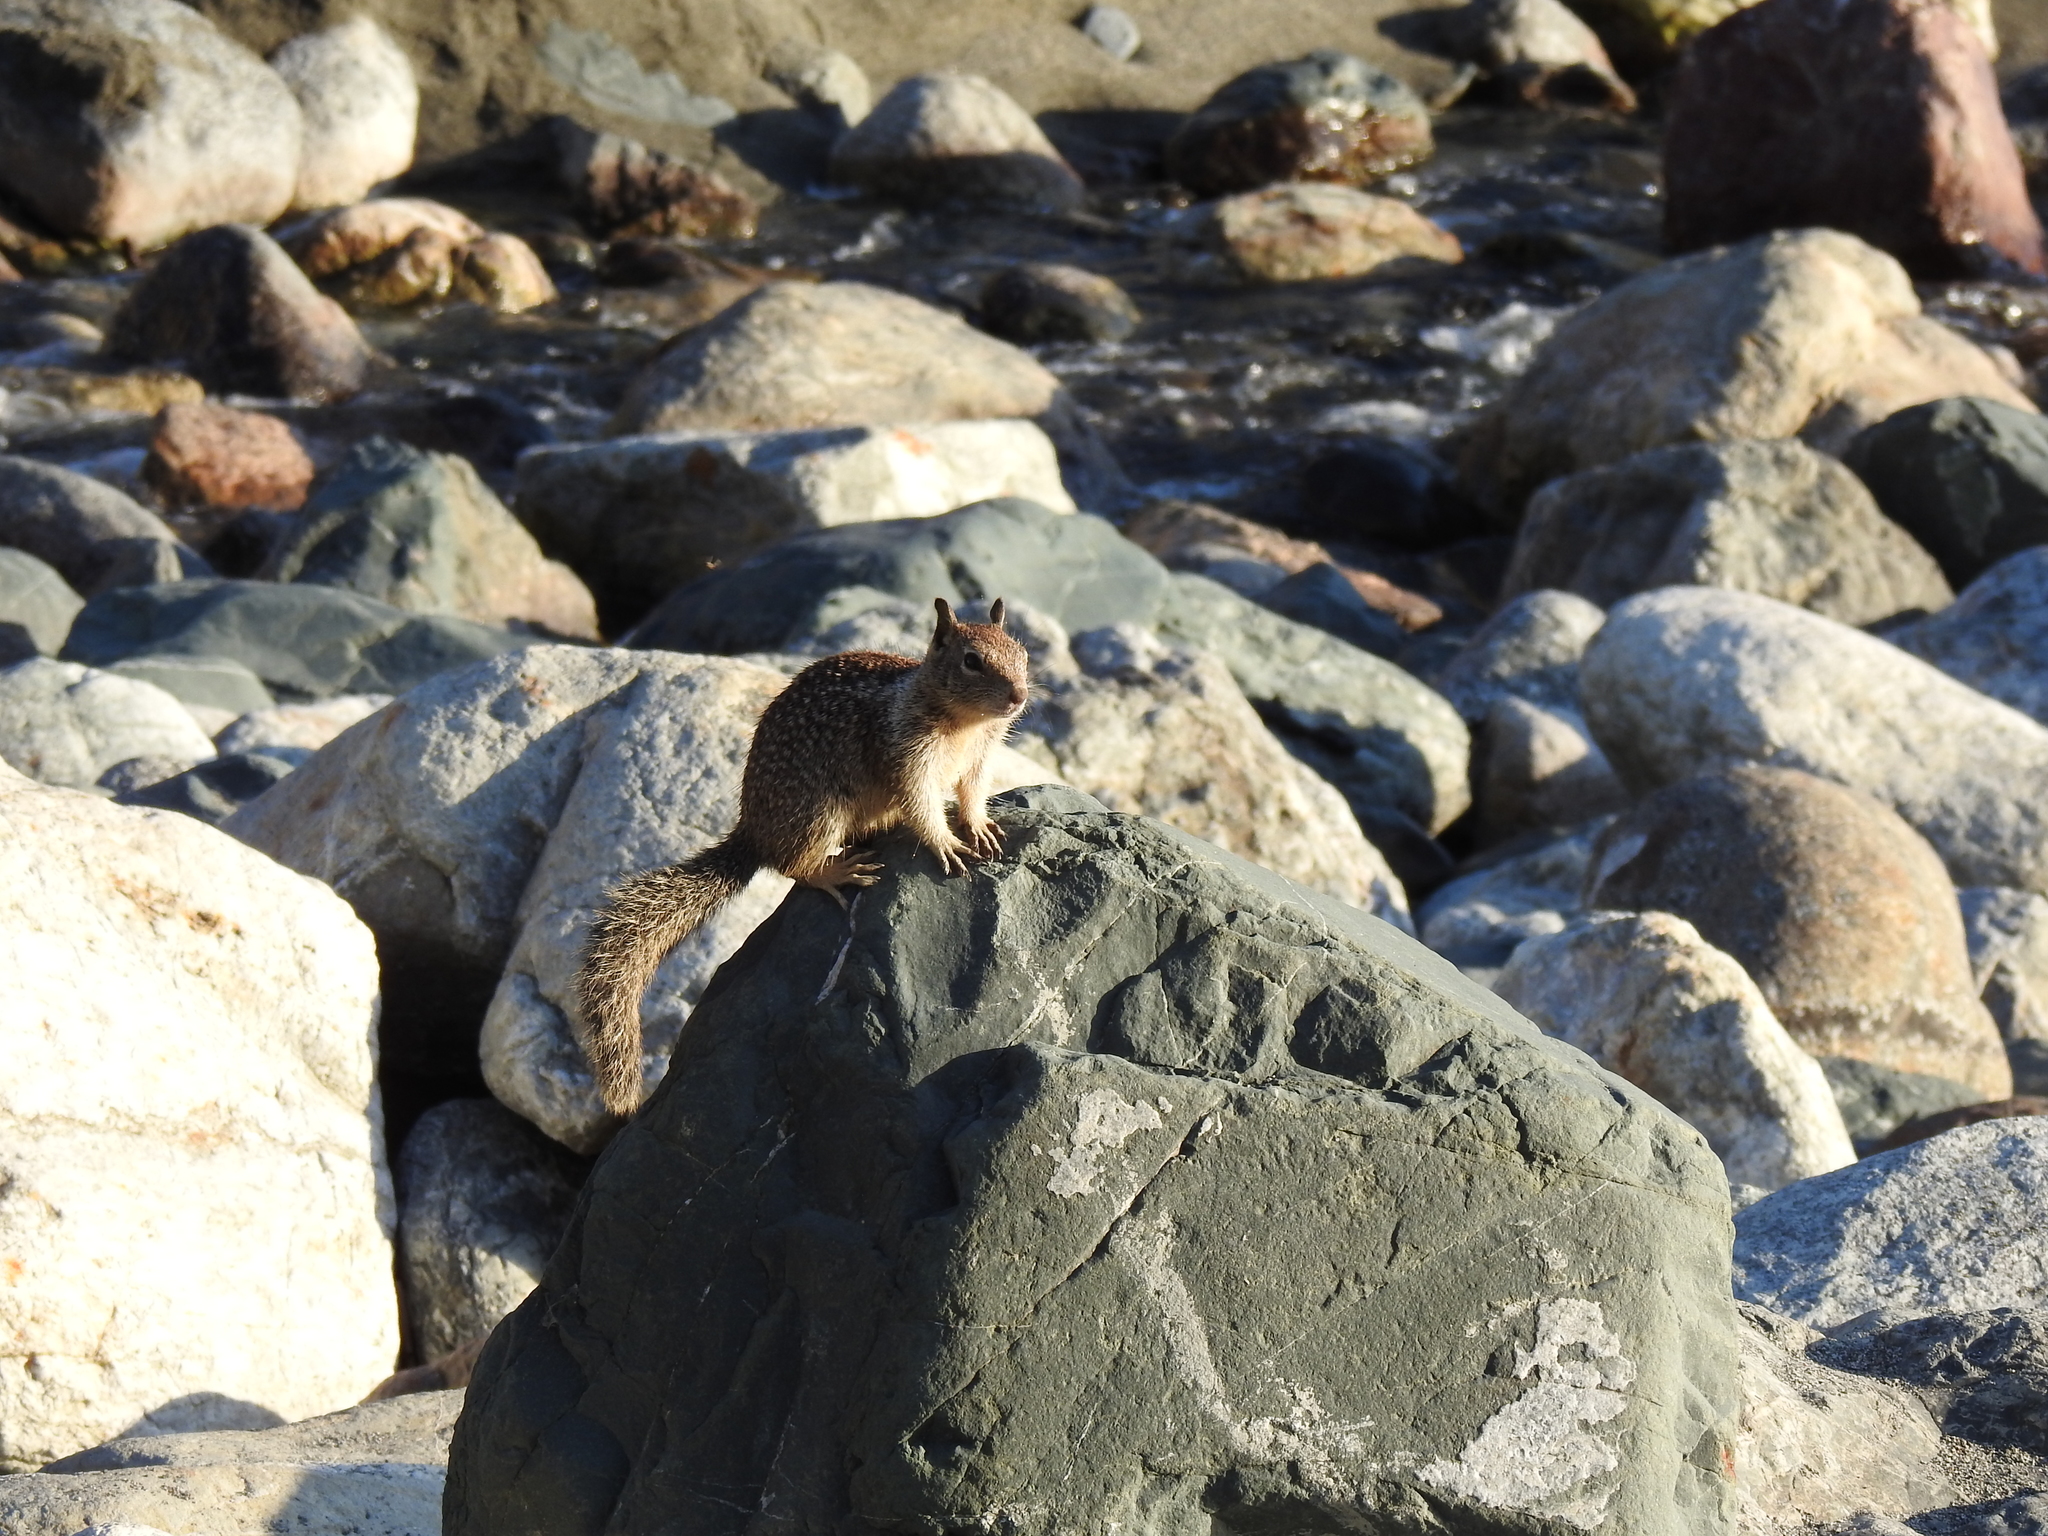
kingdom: Animalia
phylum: Chordata
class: Mammalia
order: Rodentia
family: Sciuridae
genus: Otospermophilus
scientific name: Otospermophilus beecheyi
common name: California ground squirrel
